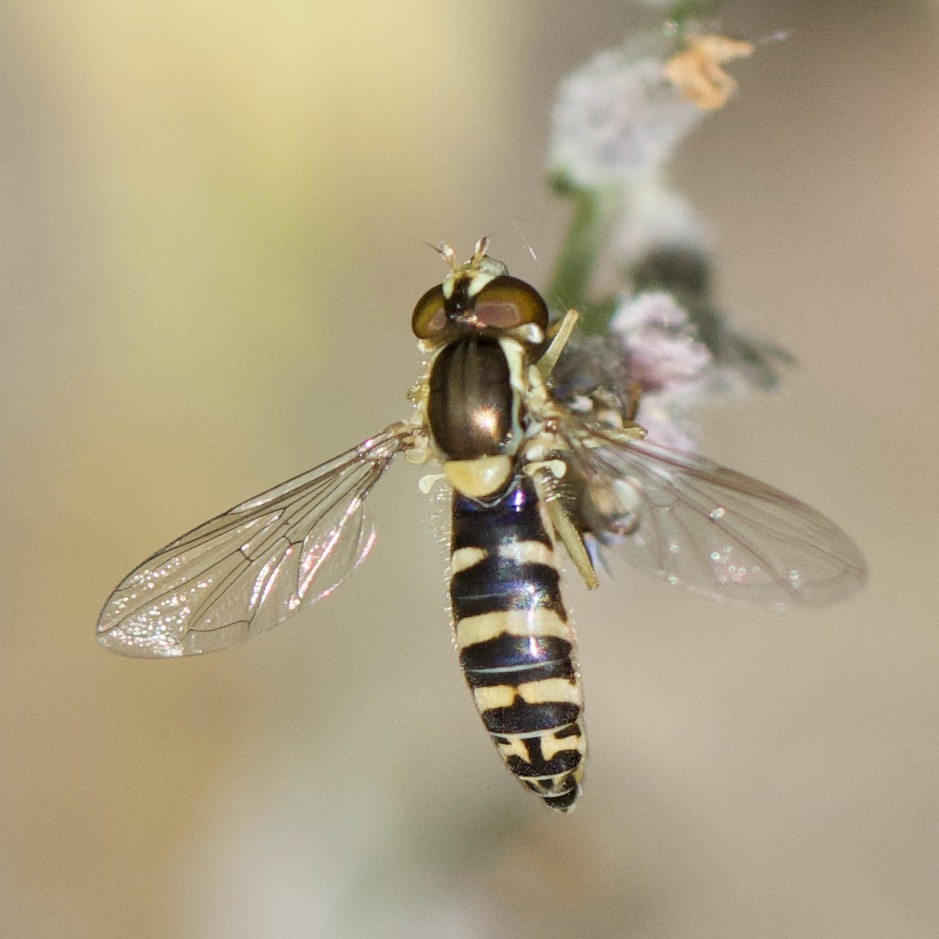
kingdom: Animalia
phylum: Arthropoda
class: Insecta
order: Diptera
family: Syrphidae
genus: Sphaerophoria
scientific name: Sphaerophoria
